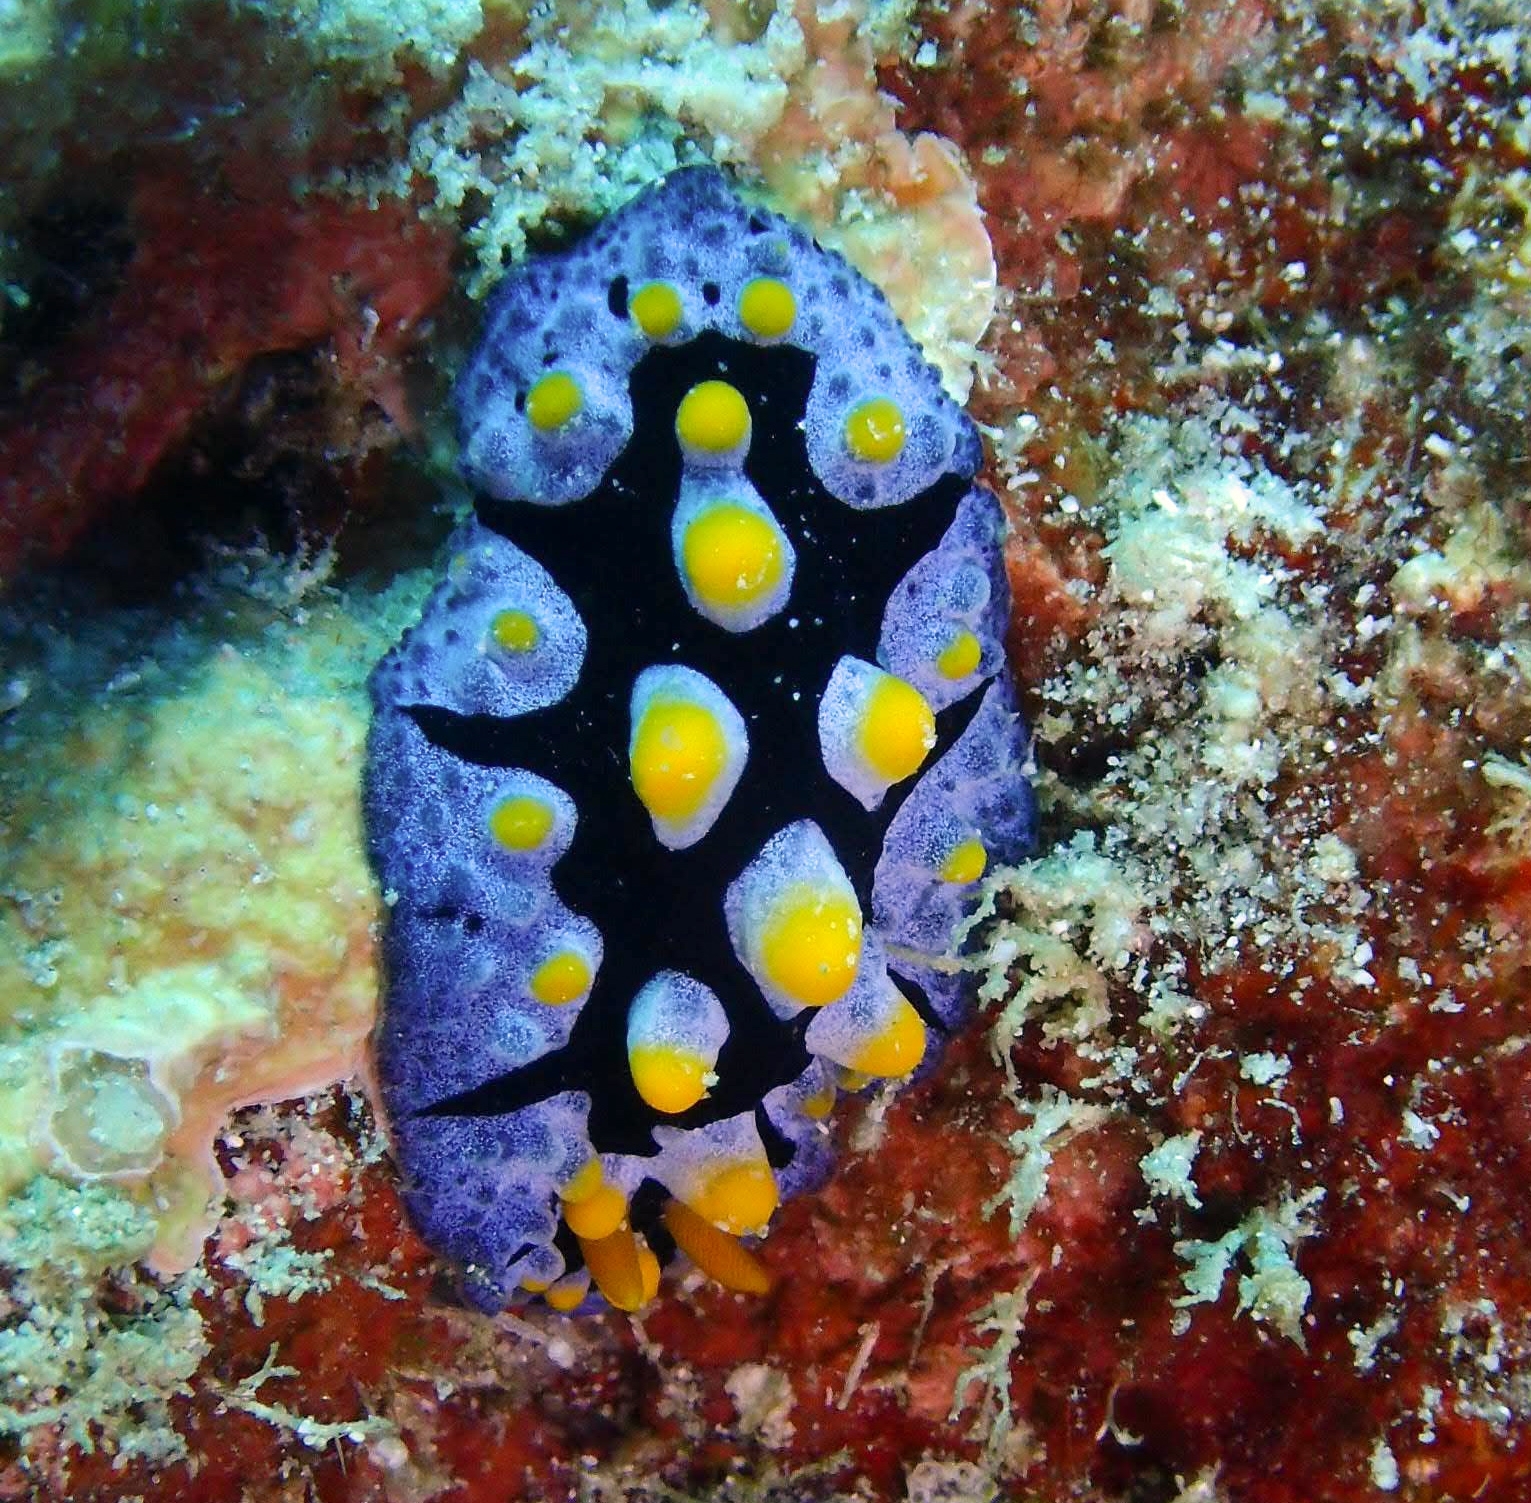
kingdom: Animalia
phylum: Mollusca
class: Gastropoda
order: Nudibranchia
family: Phyllidiidae
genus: Phyllidia
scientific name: Phyllidia picta
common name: Black-rayed phyllidia
